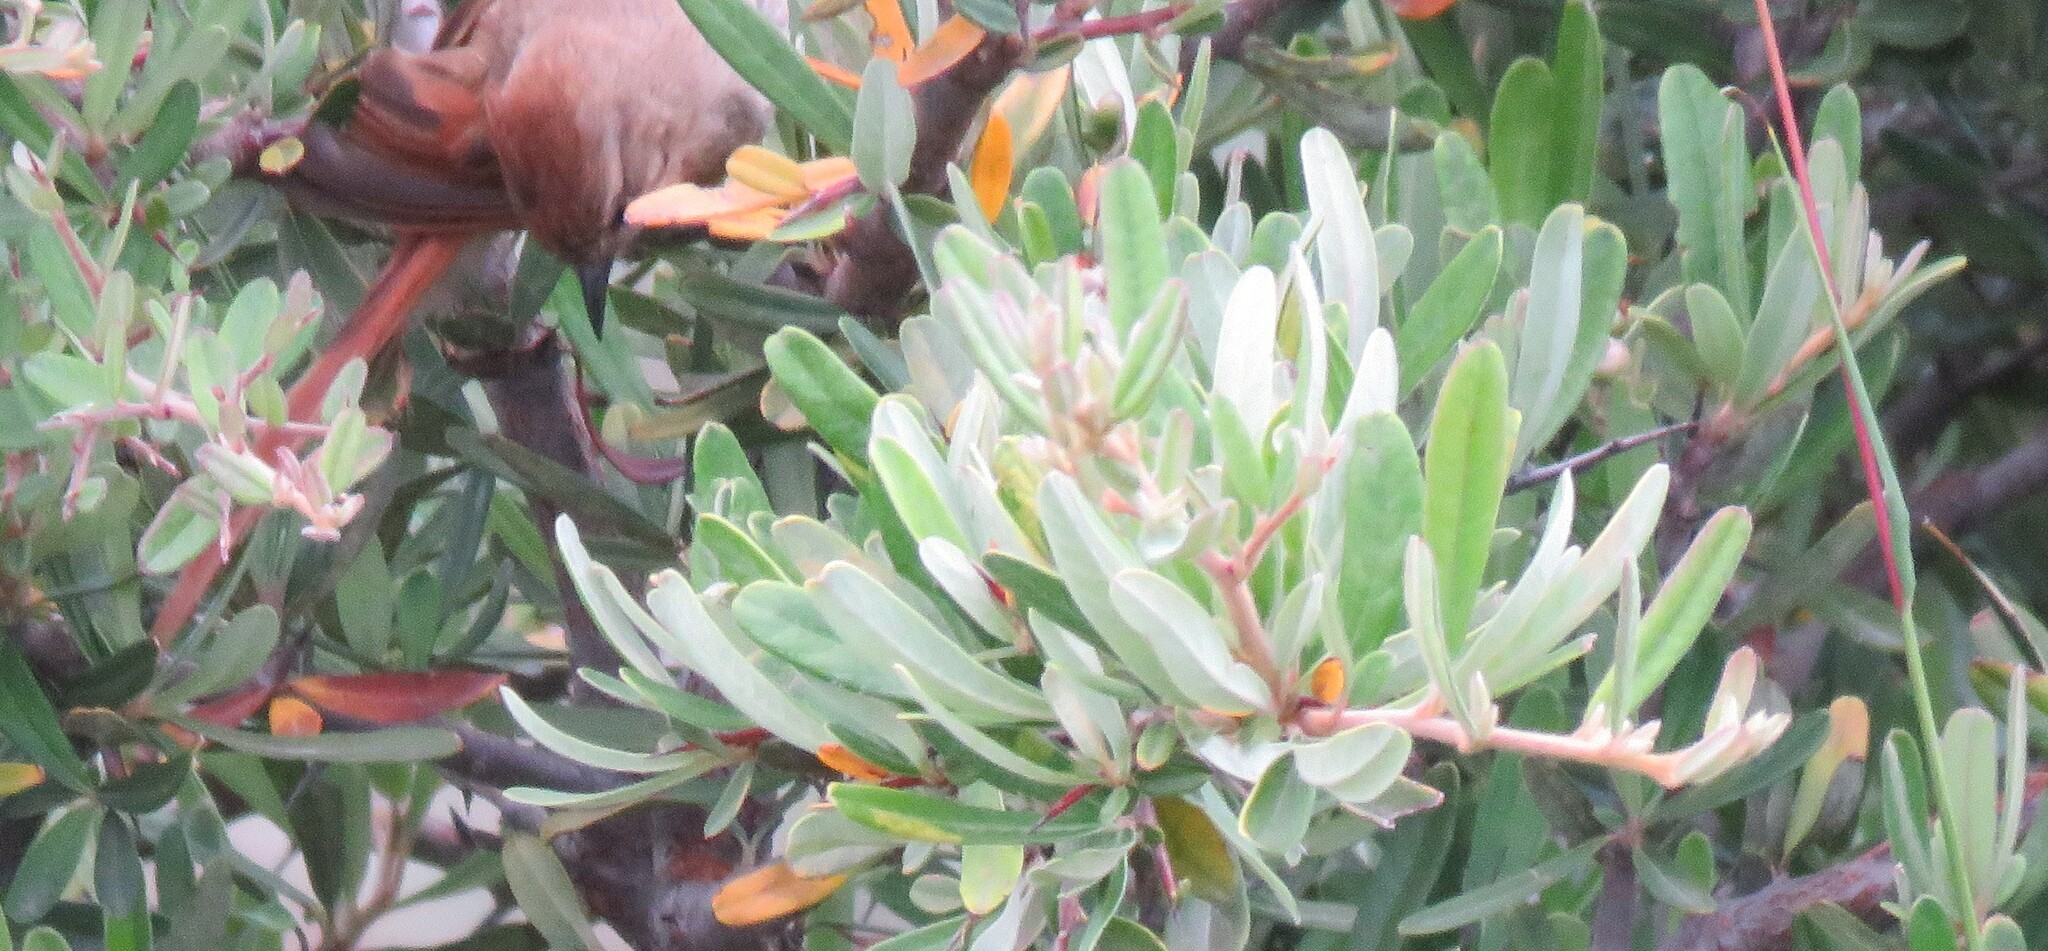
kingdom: Animalia
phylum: Chordata
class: Aves
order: Passeriformes
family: Furnariidae
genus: Leptasthenura
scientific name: Leptasthenura fuliginiceps
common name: Brown-capped tit-spinetail
